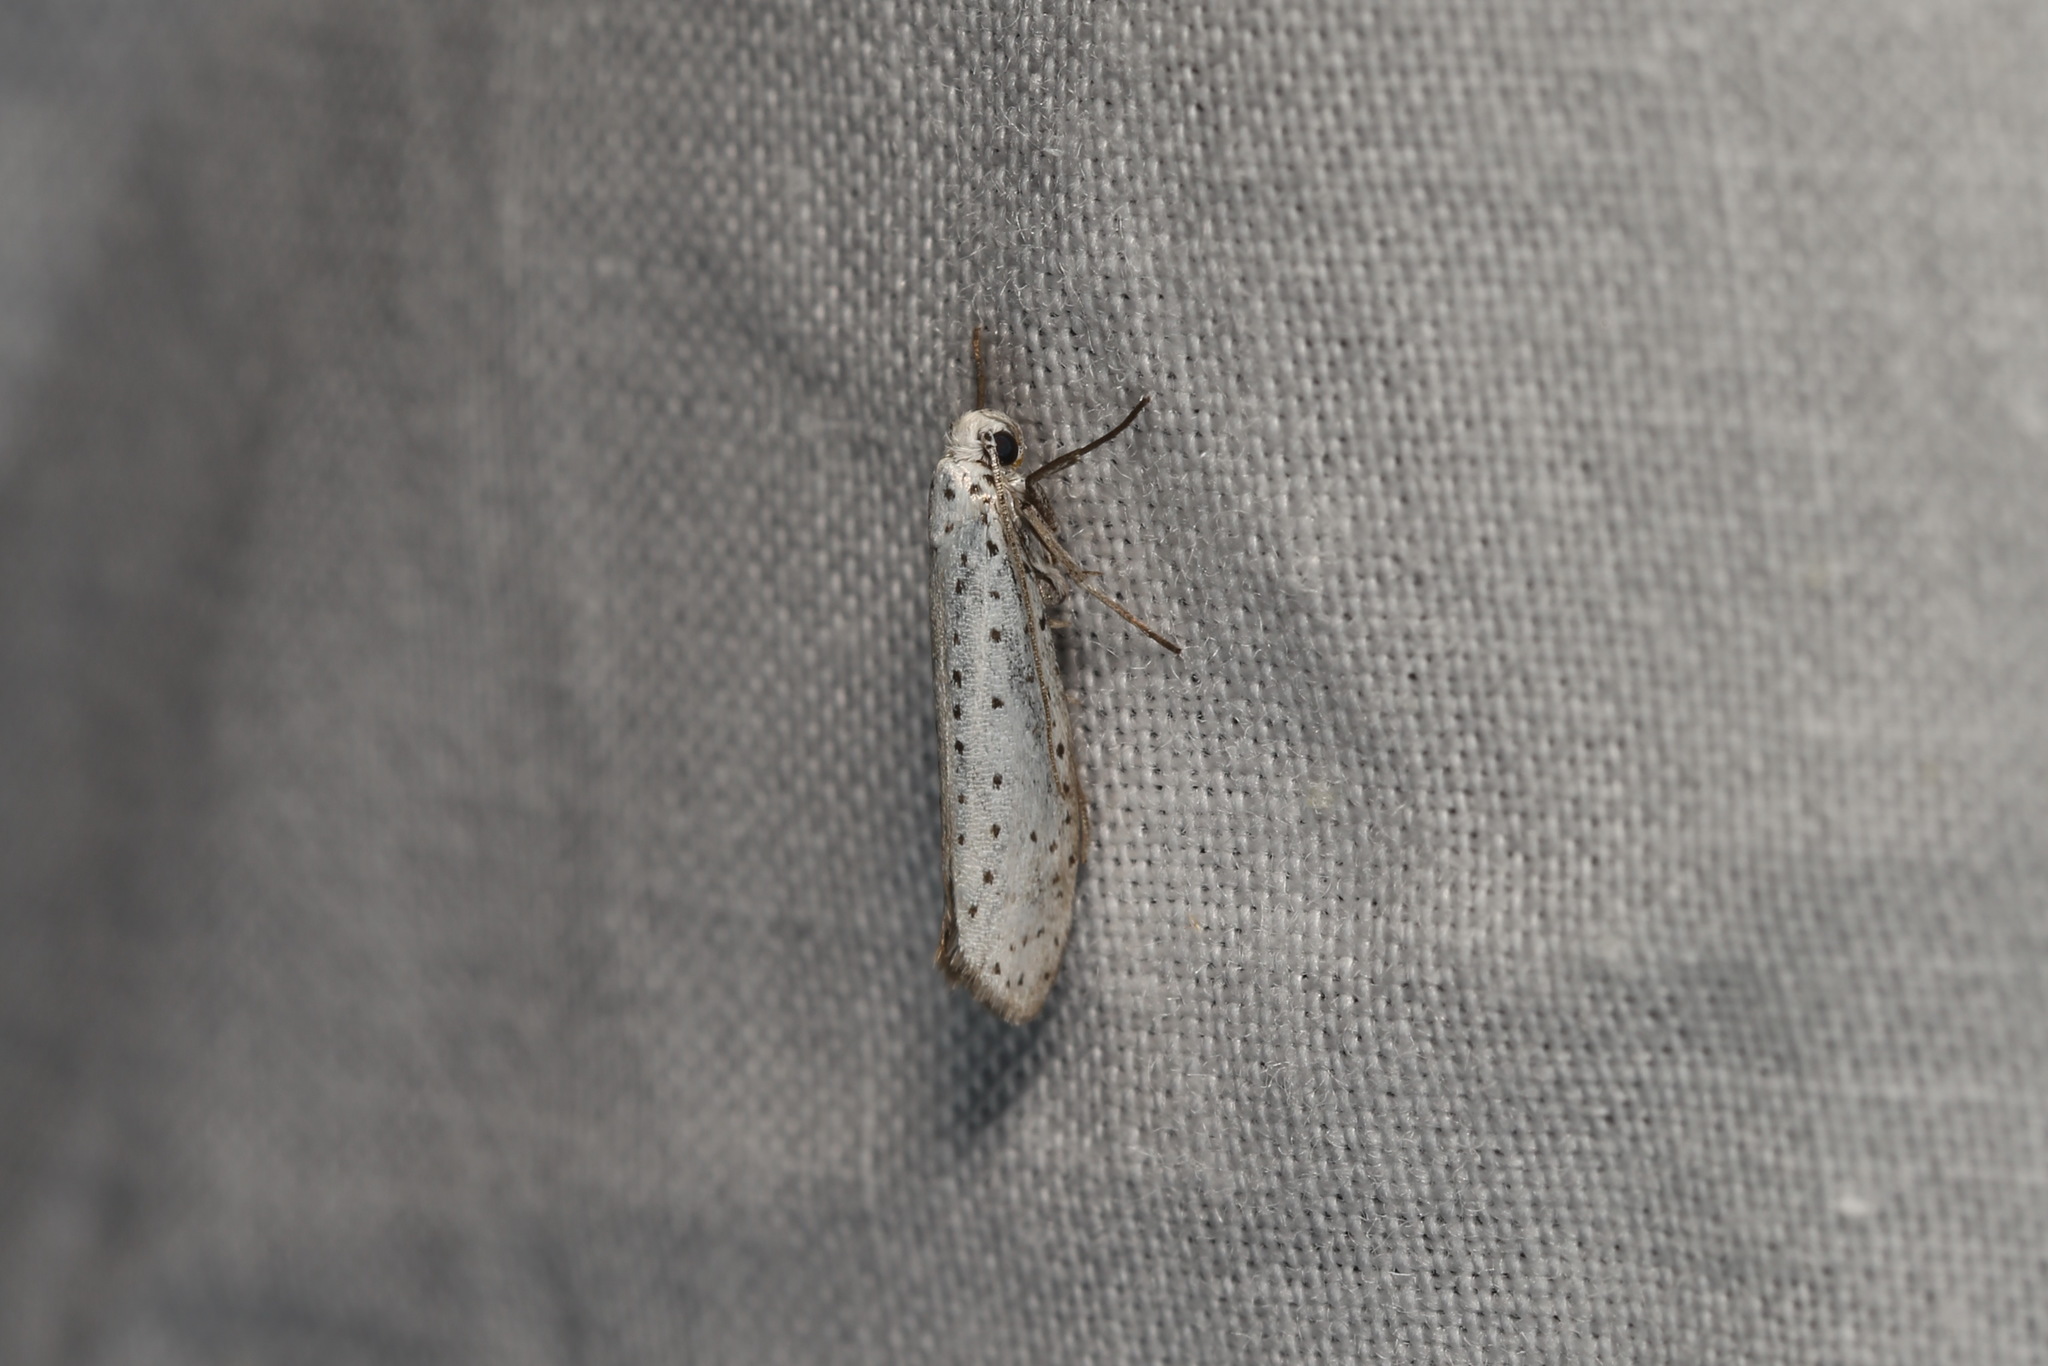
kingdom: Animalia
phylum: Arthropoda
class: Insecta
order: Lepidoptera
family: Yponomeutidae
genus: Yponomeuta
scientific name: Yponomeuta evonymella
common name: Bird-cherry ermine
